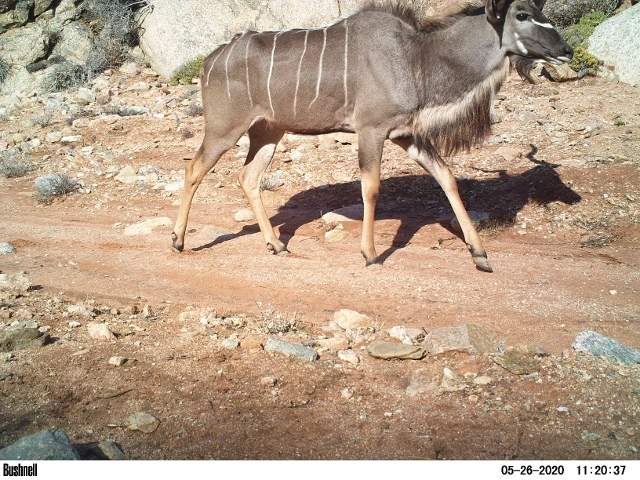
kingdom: Animalia
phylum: Chordata
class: Mammalia
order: Artiodactyla
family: Bovidae
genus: Tragelaphus
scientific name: Tragelaphus strepsiceros
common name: Greater kudu
